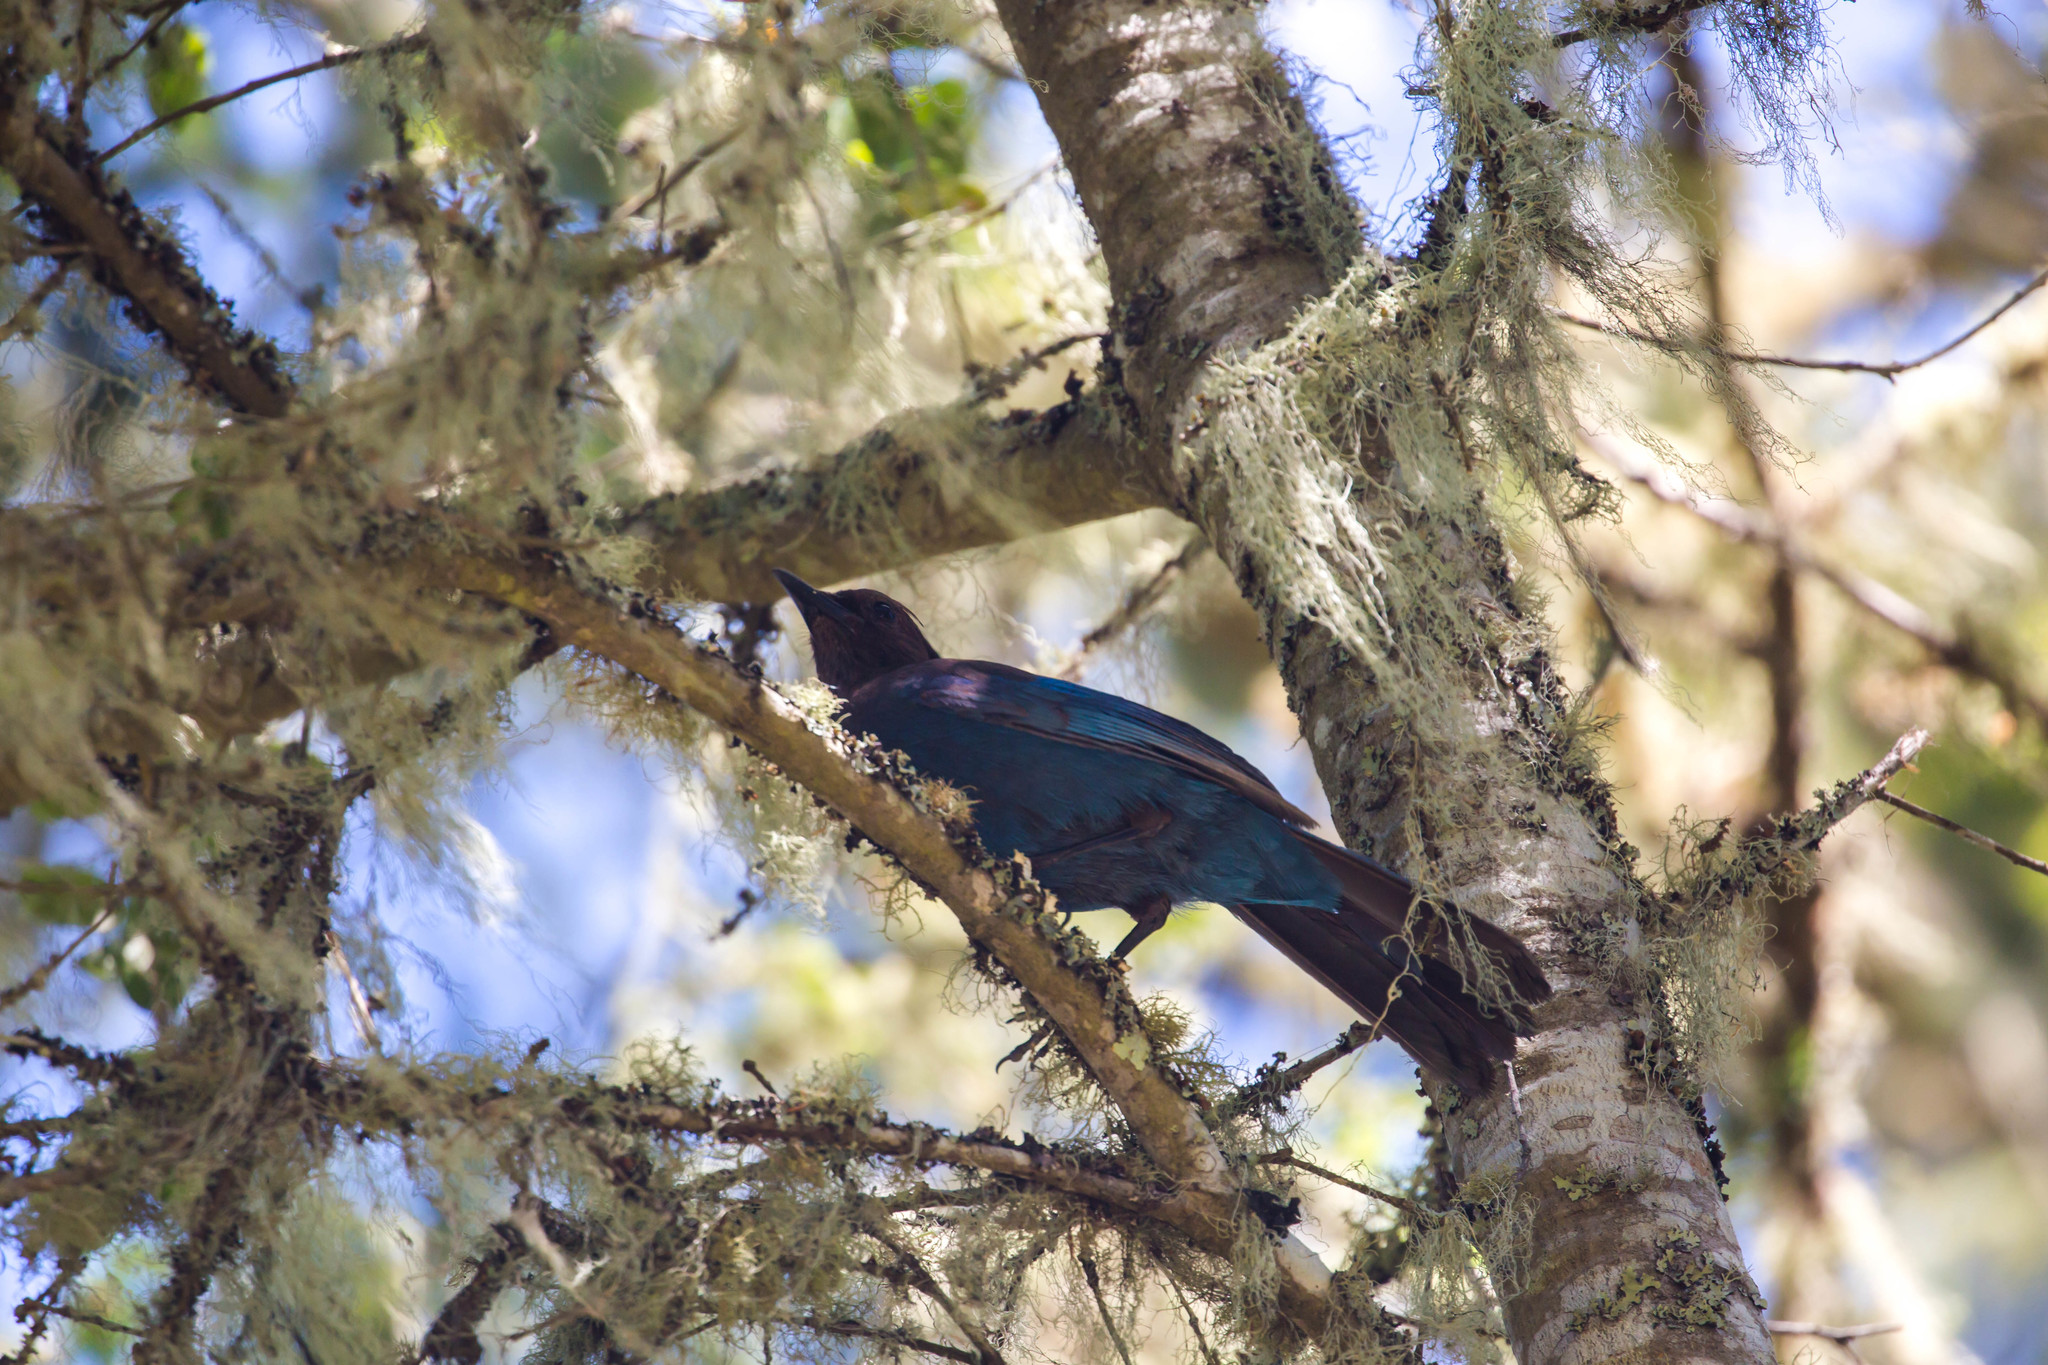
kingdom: Animalia
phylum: Chordata
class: Aves
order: Passeriformes
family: Corvidae
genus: Cyanocitta
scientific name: Cyanocitta stelleri
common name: Steller's jay
